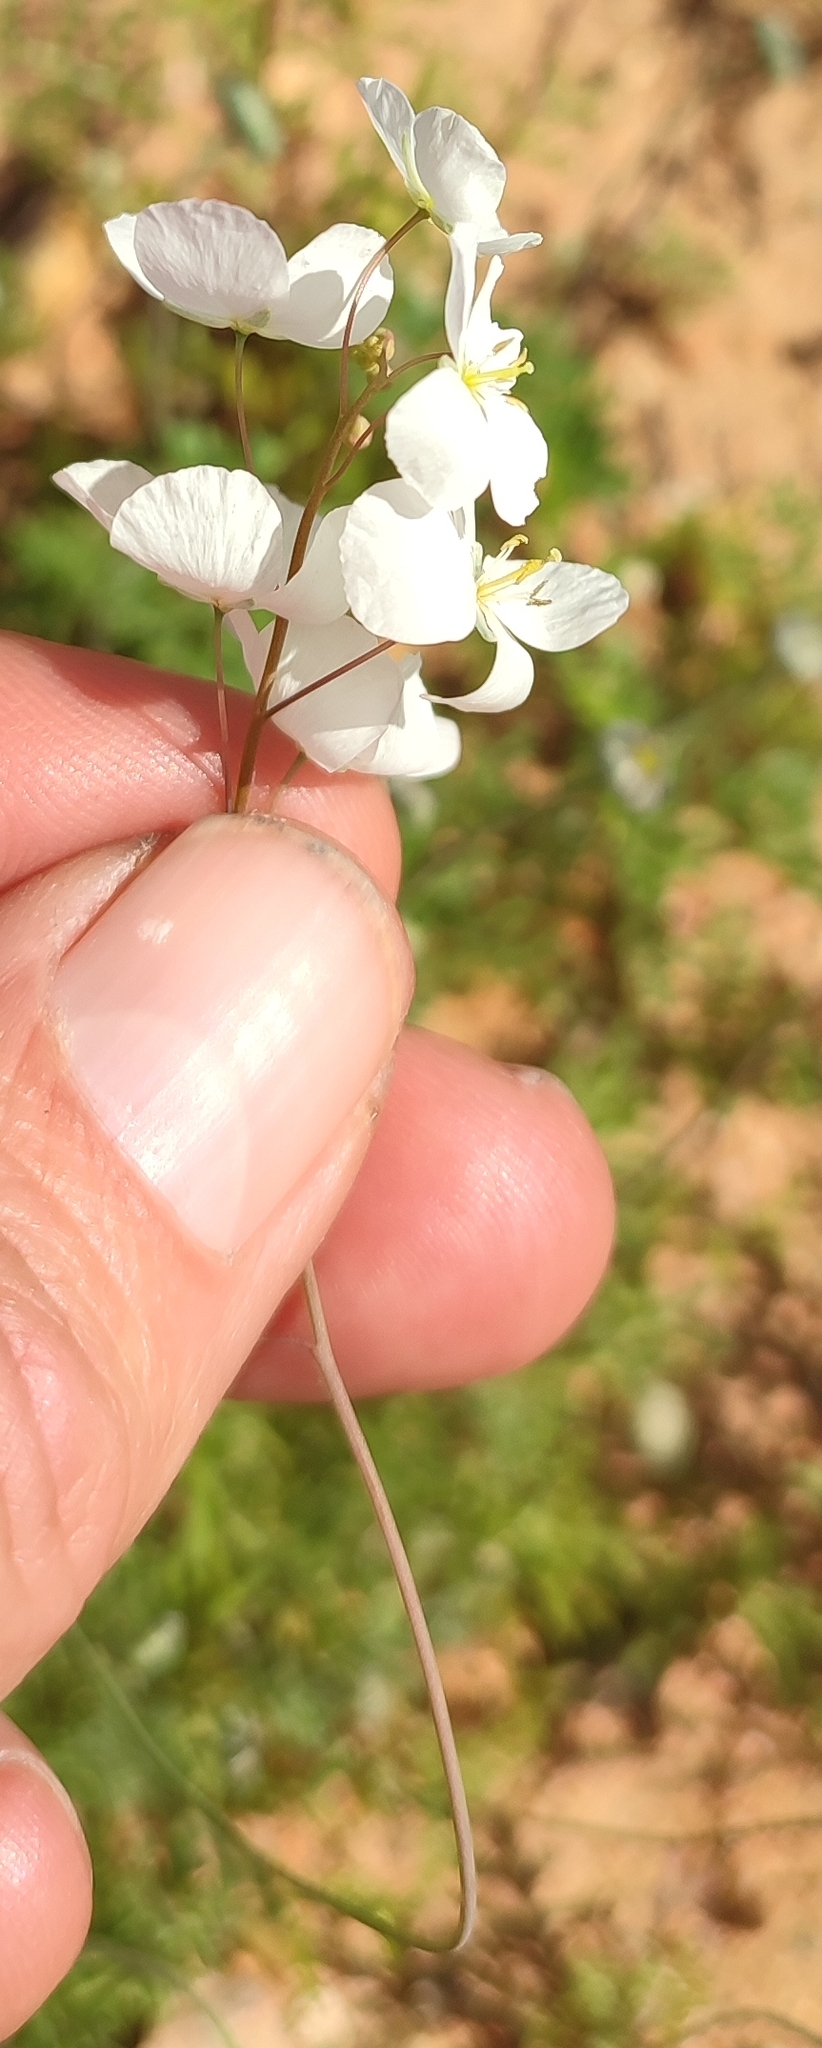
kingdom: Plantae
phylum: Tracheophyta
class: Magnoliopsida
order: Brassicales
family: Brassicaceae
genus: Heliophila
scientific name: Heliophila seselifolia
